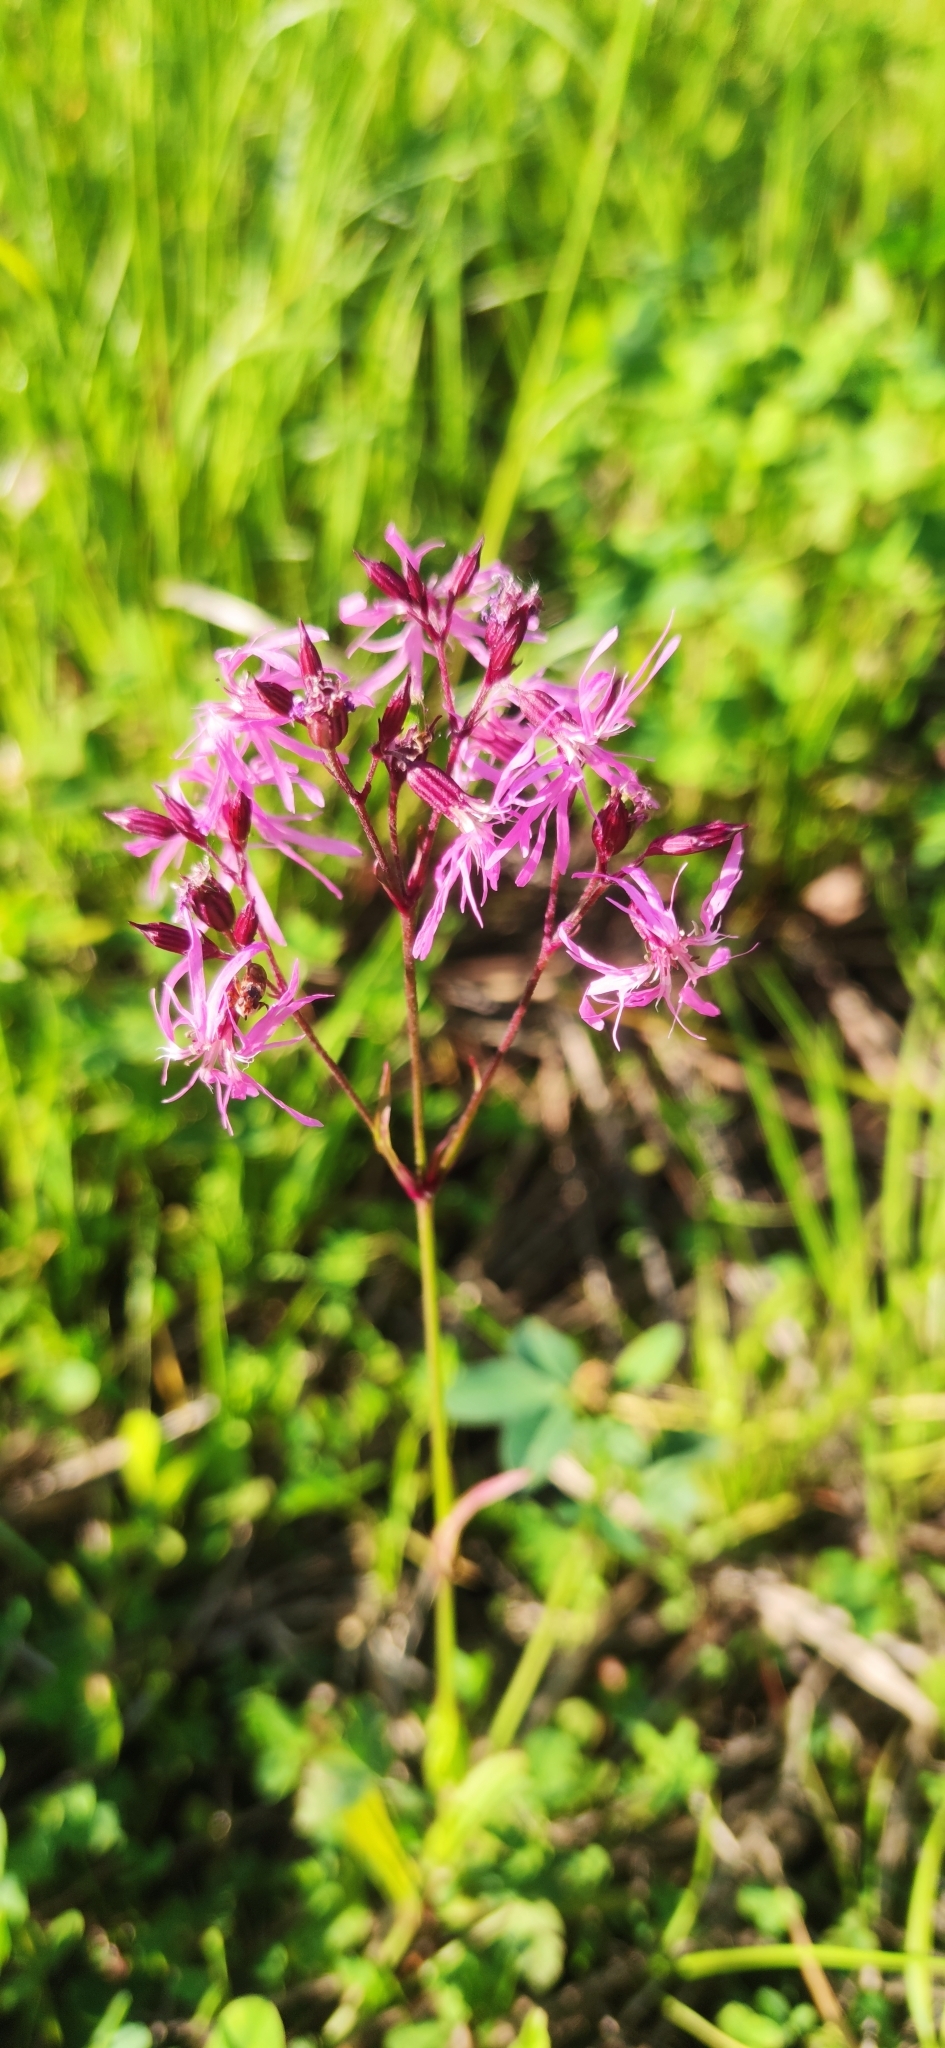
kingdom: Plantae
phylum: Tracheophyta
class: Magnoliopsida
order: Caryophyllales
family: Caryophyllaceae
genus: Silene
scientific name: Silene flos-cuculi
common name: Ragged-robin
